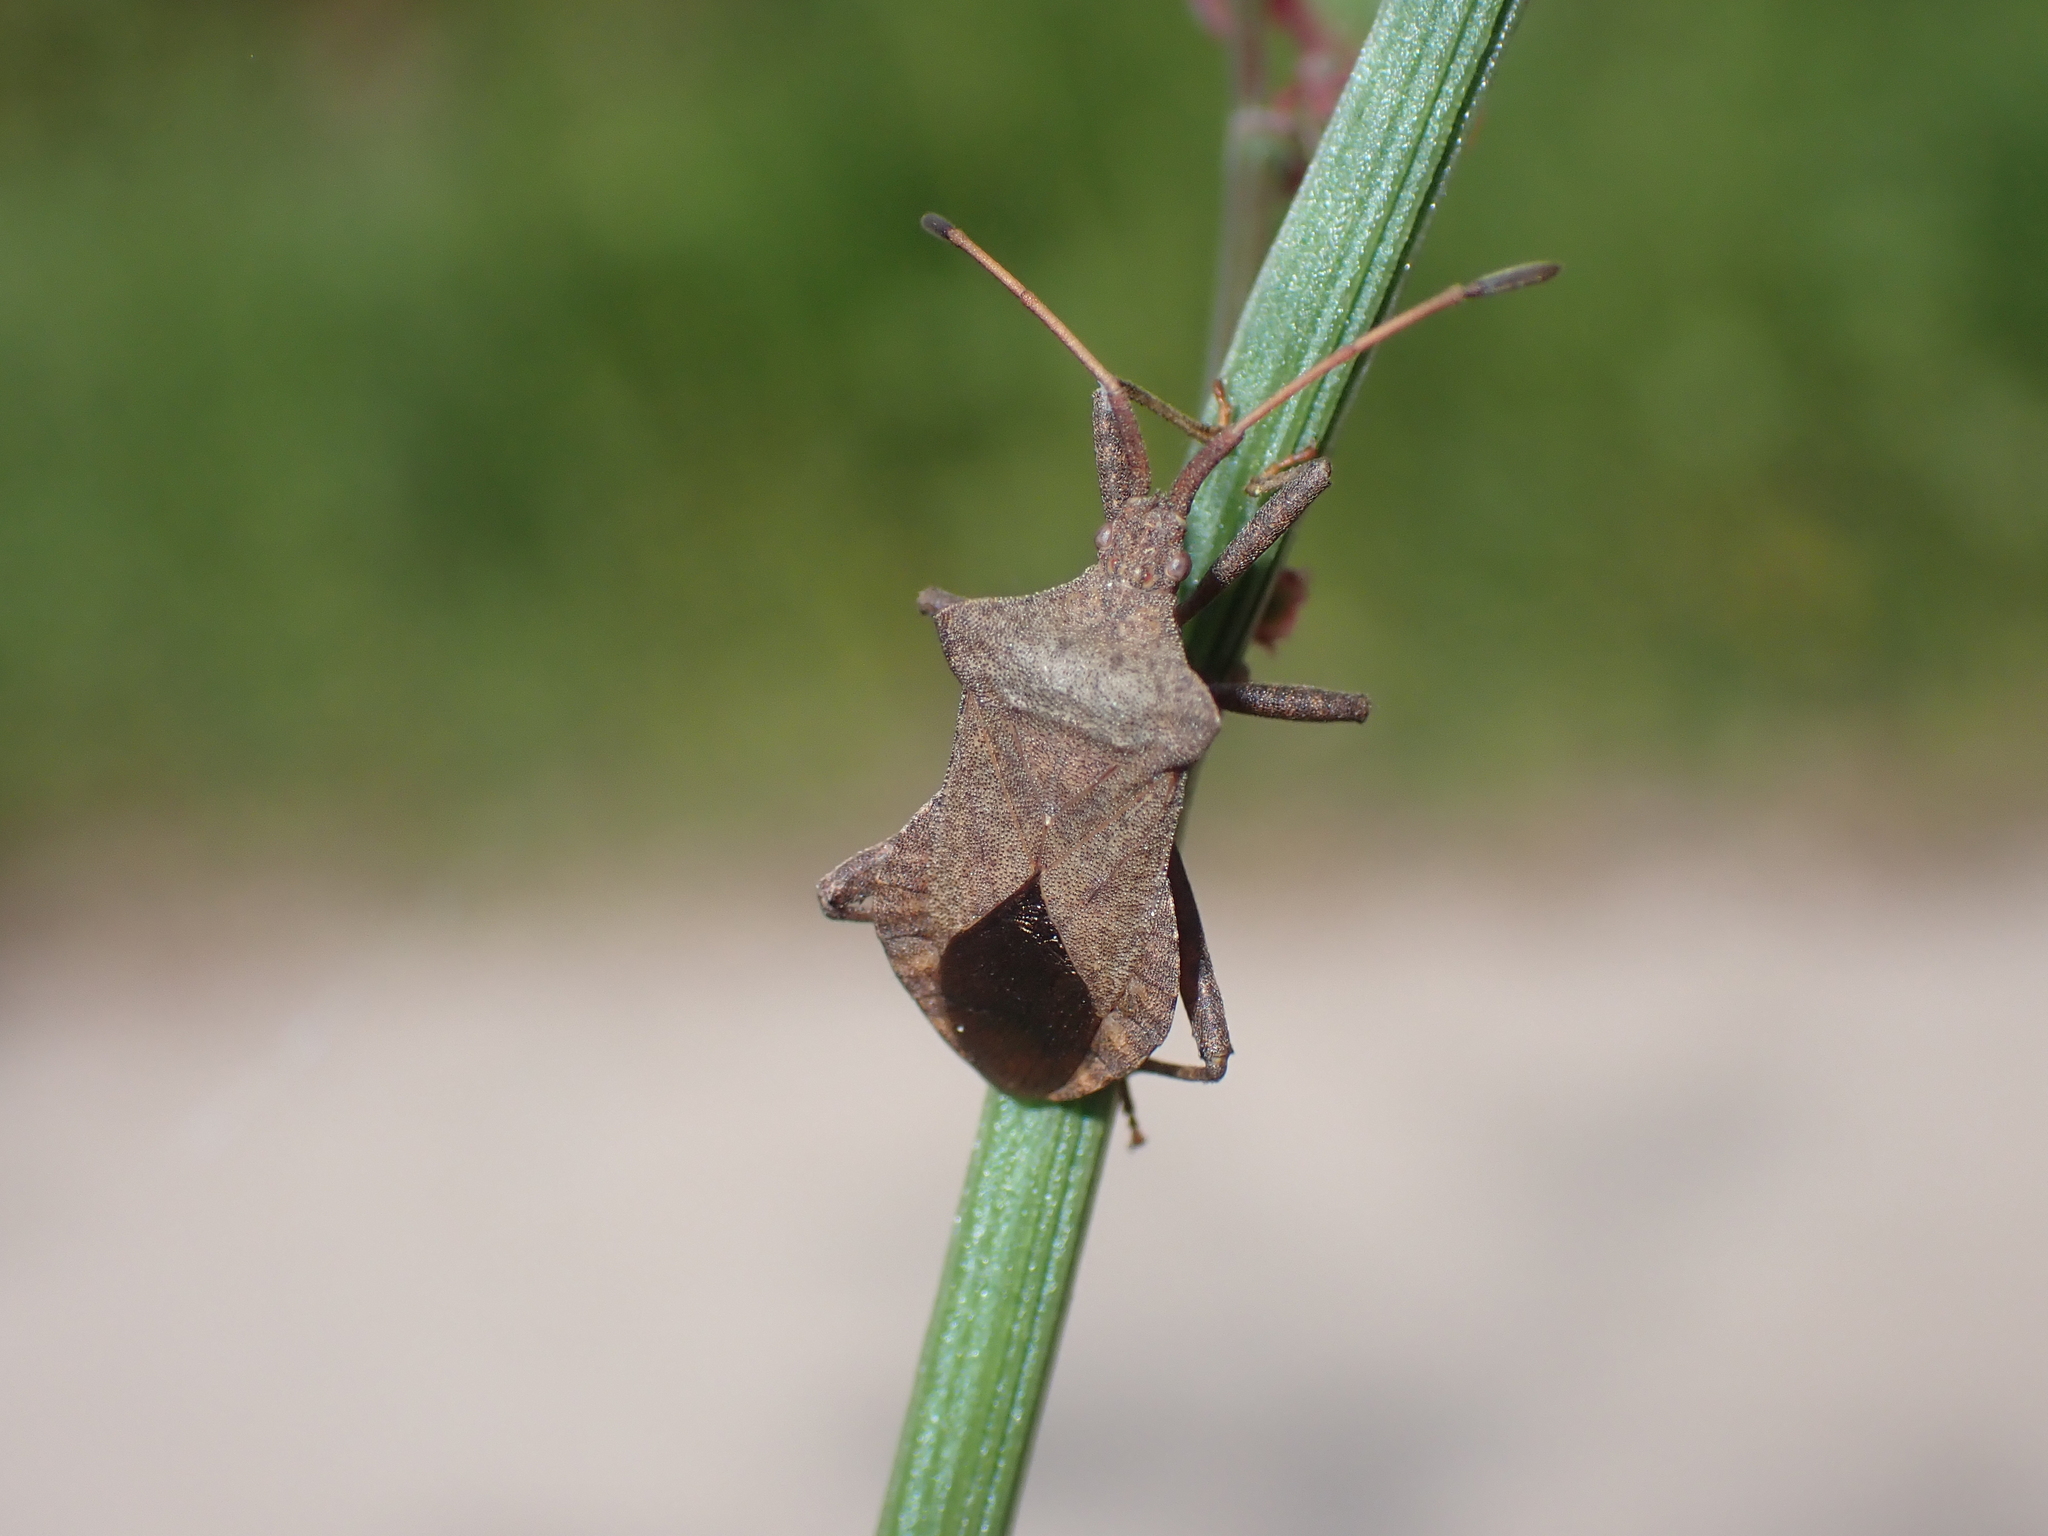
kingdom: Animalia
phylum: Arthropoda
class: Insecta
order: Hemiptera
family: Coreidae
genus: Coreus
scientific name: Coreus marginatus
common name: Dock bug
